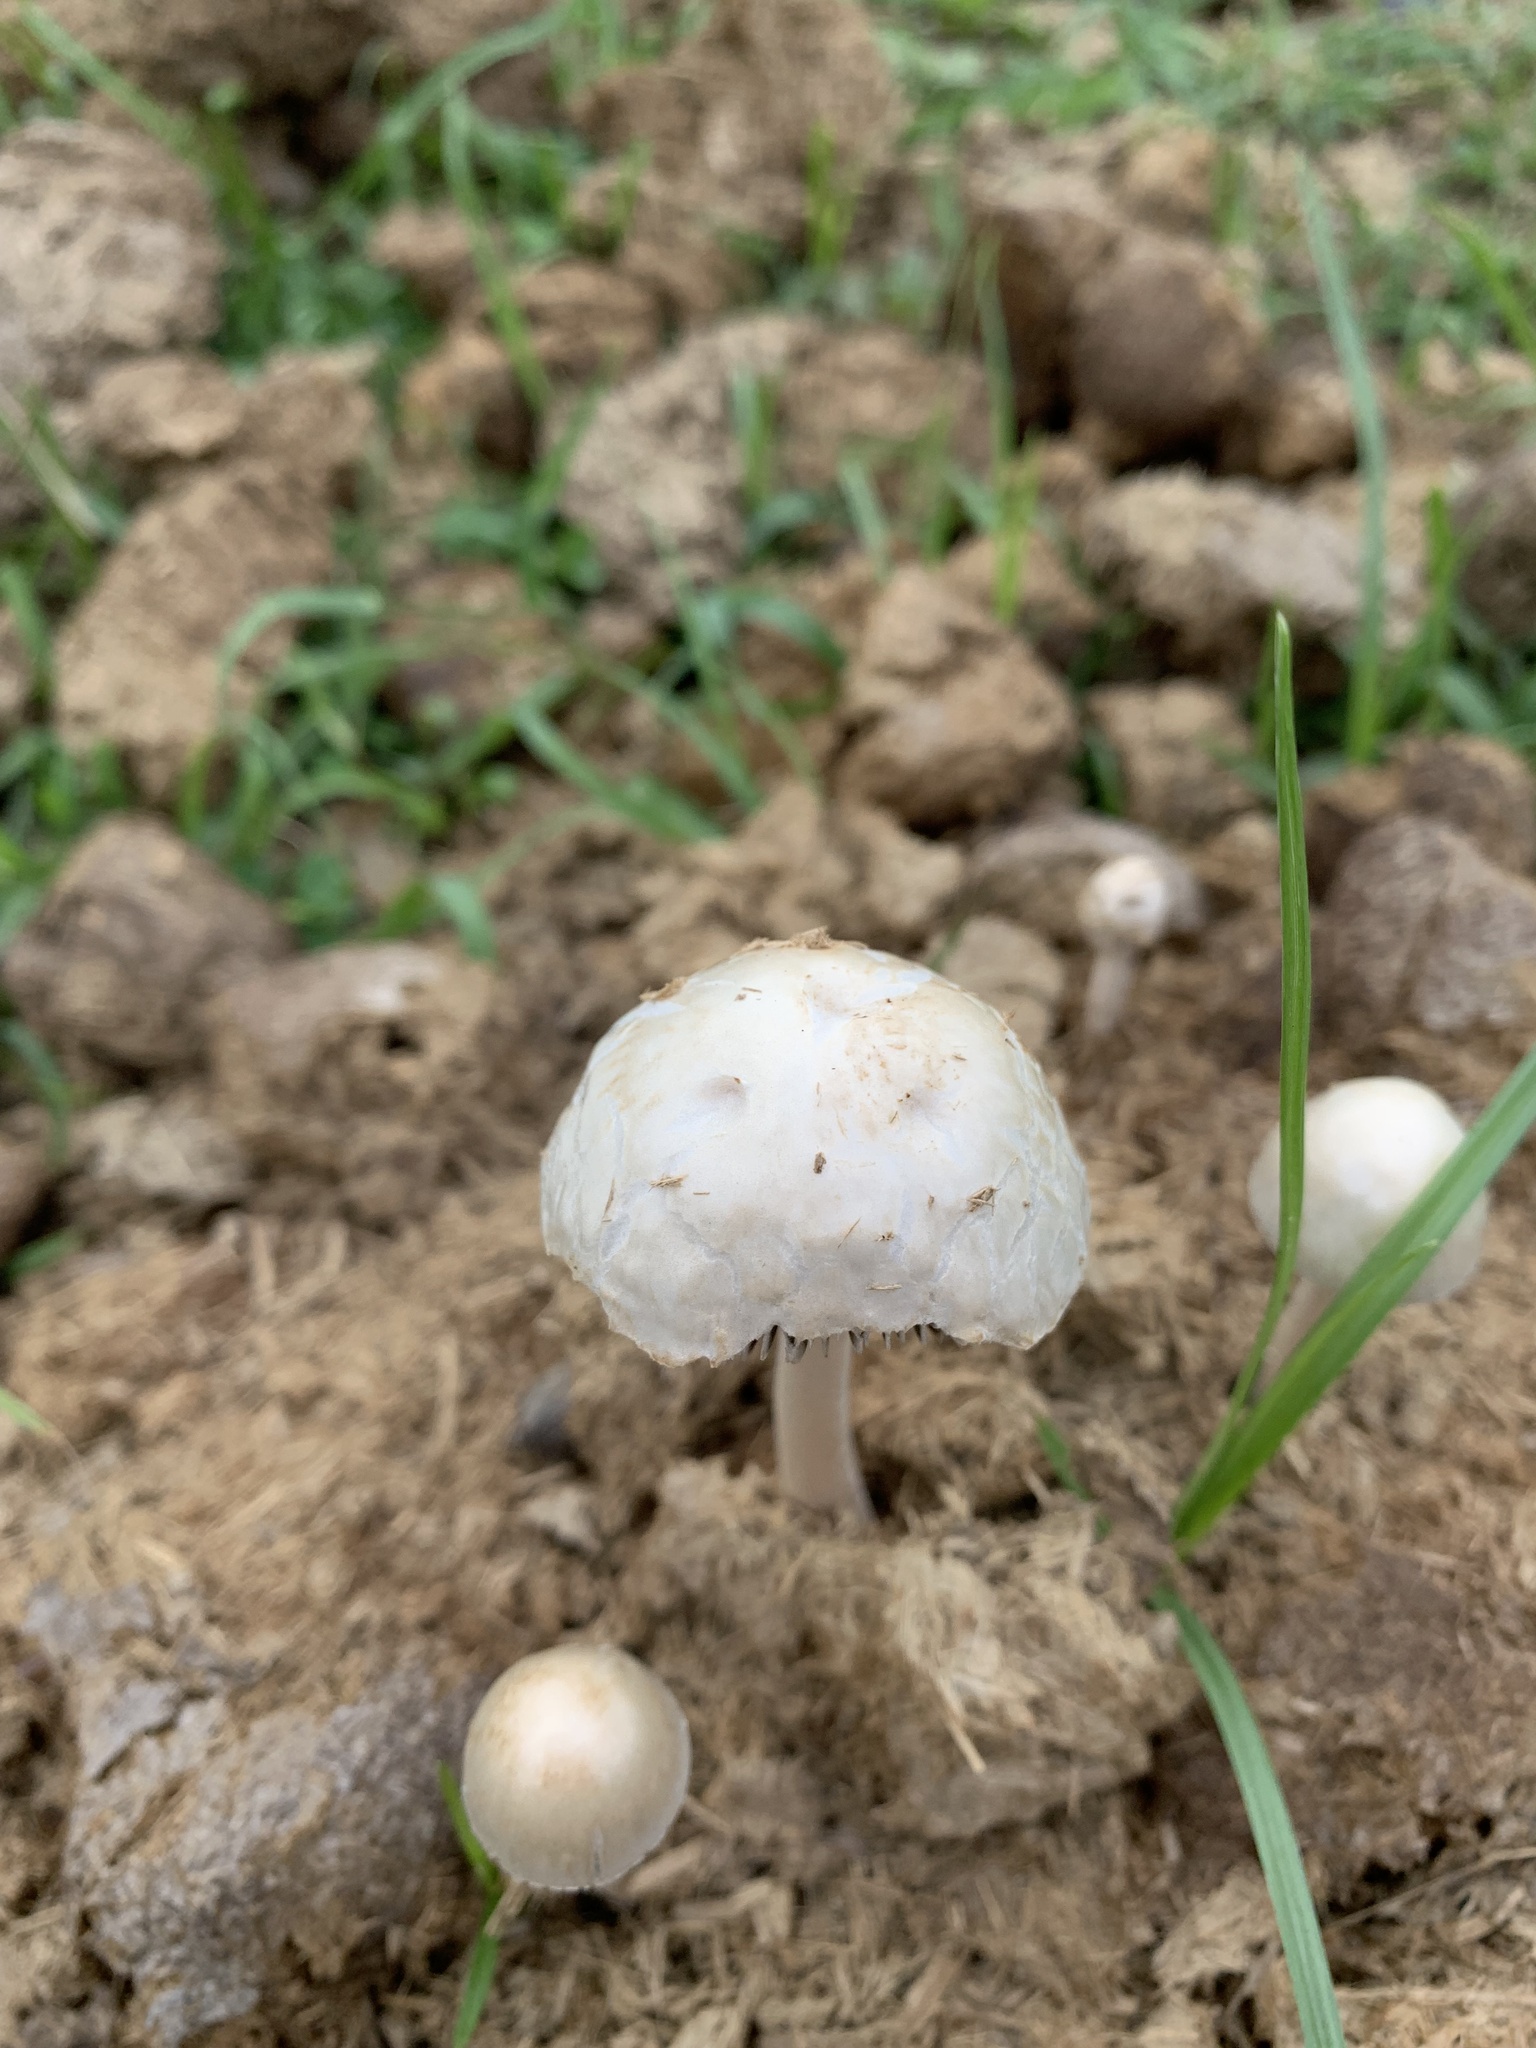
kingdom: Fungi
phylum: Basidiomycota
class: Agaricomycetes
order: Agaricales
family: Bolbitiaceae
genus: Panaeolus
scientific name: Panaeolus antillarum
